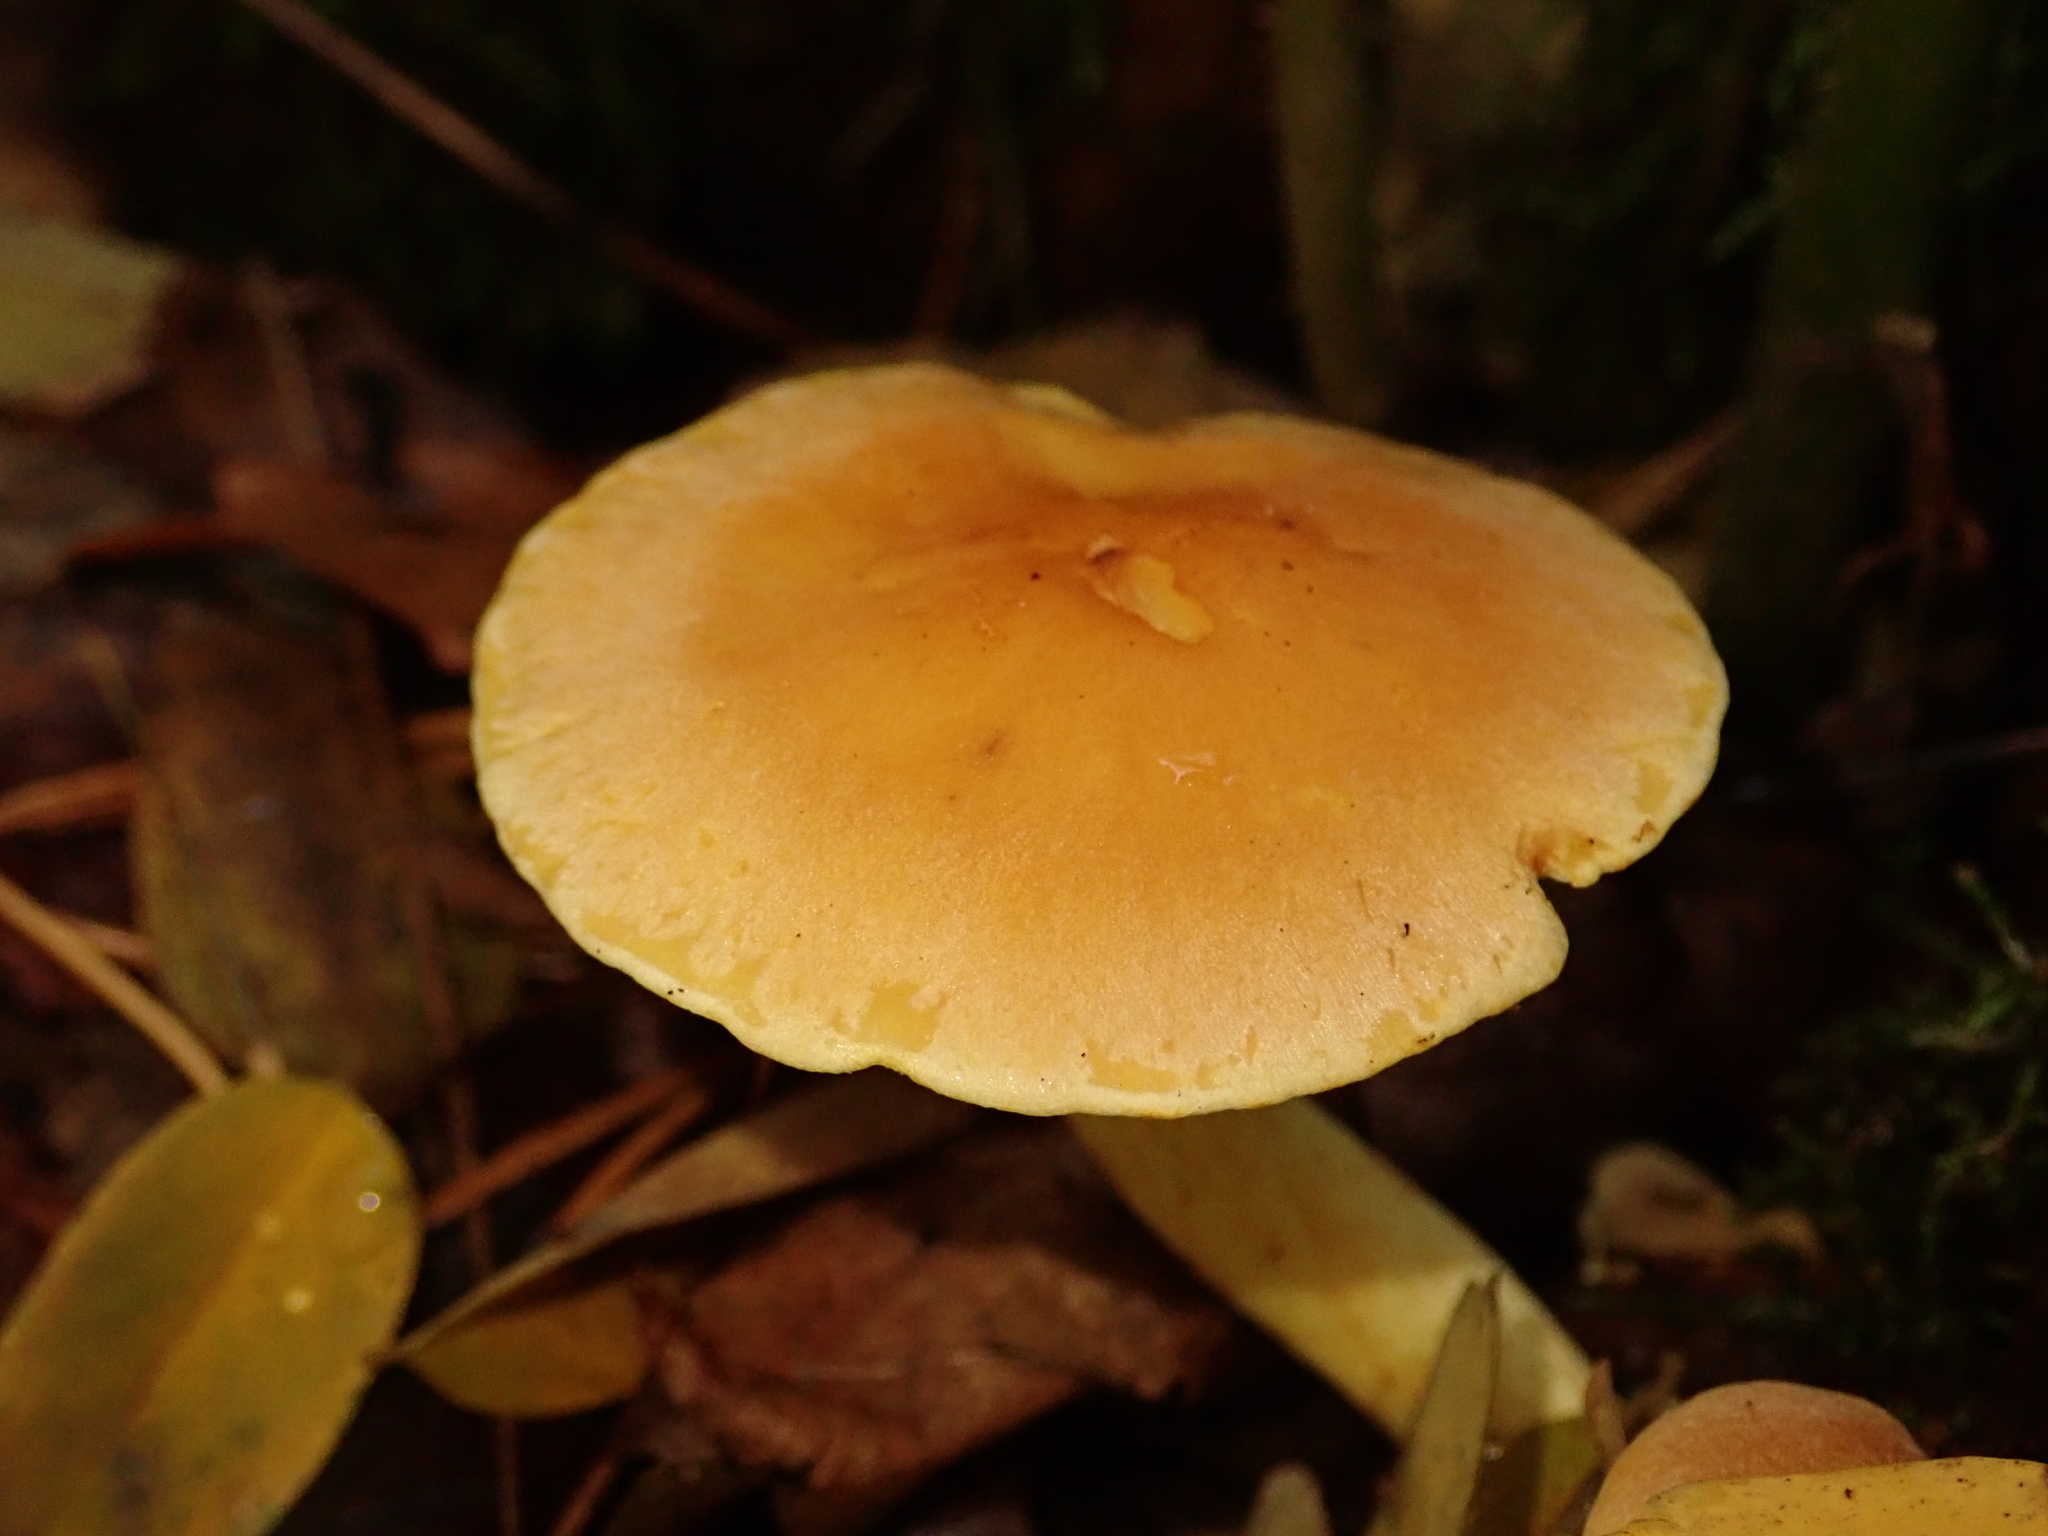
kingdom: Fungi
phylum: Basidiomycota
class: Agaricomycetes
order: Agaricales
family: Strophariaceae
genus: Hypholoma
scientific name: Hypholoma fasciculare
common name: Sulphur tuft
